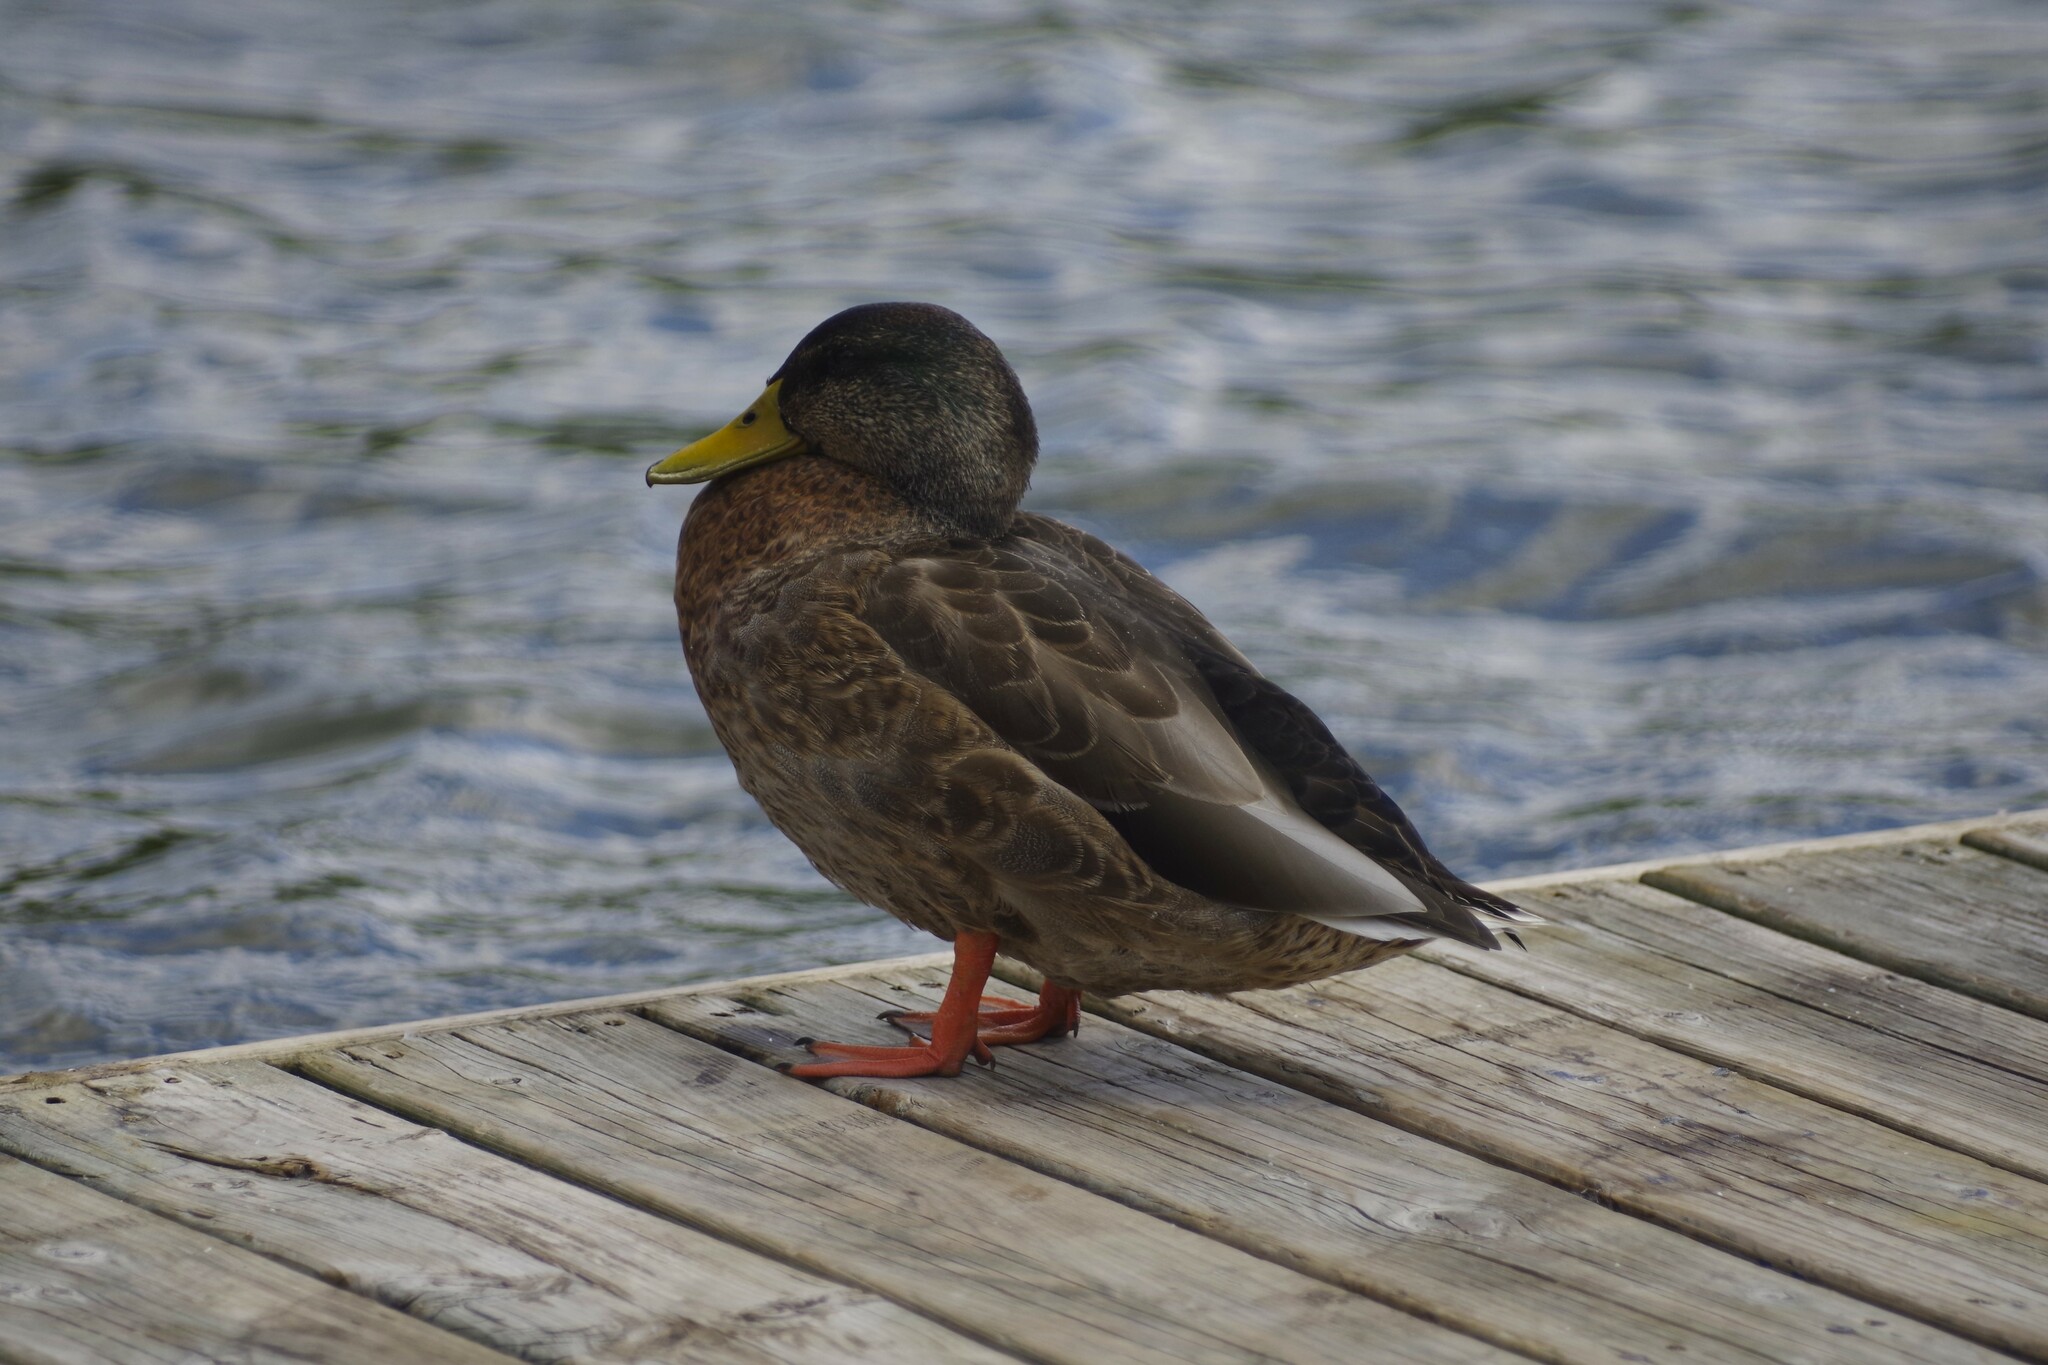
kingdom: Animalia
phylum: Chordata
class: Aves
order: Anseriformes
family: Anatidae
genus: Anas
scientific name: Anas platyrhynchos
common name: Mallard
